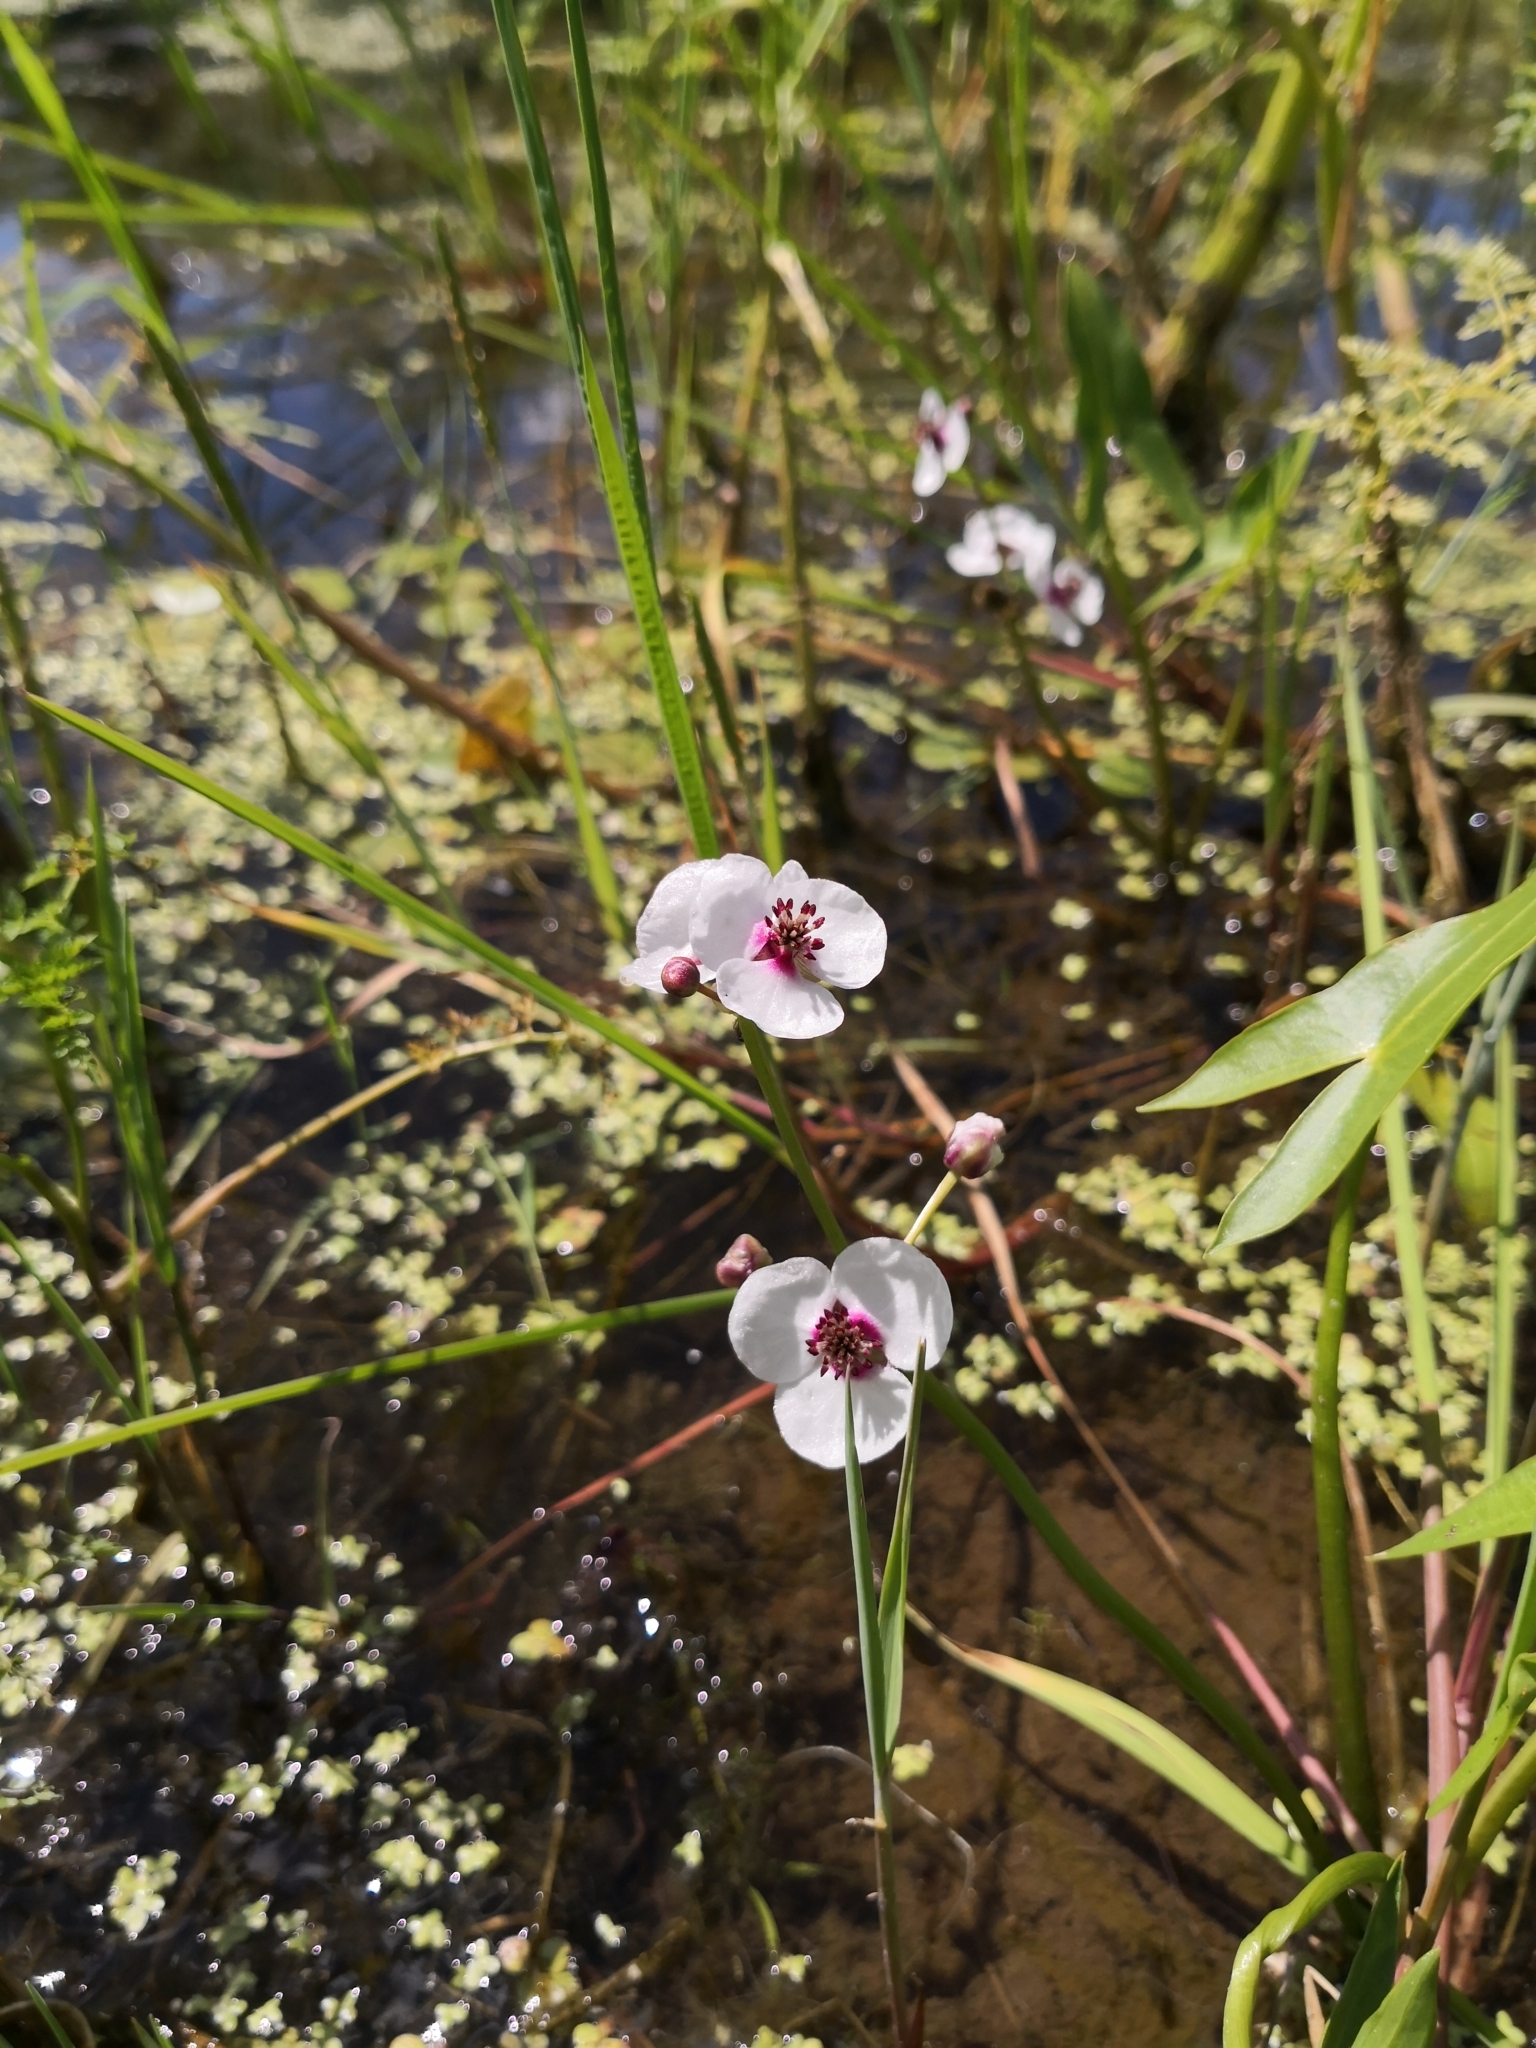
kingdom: Plantae
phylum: Tracheophyta
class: Liliopsida
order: Alismatales
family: Alismataceae
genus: Sagittaria
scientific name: Sagittaria sagittifolia
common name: Arrowhead
